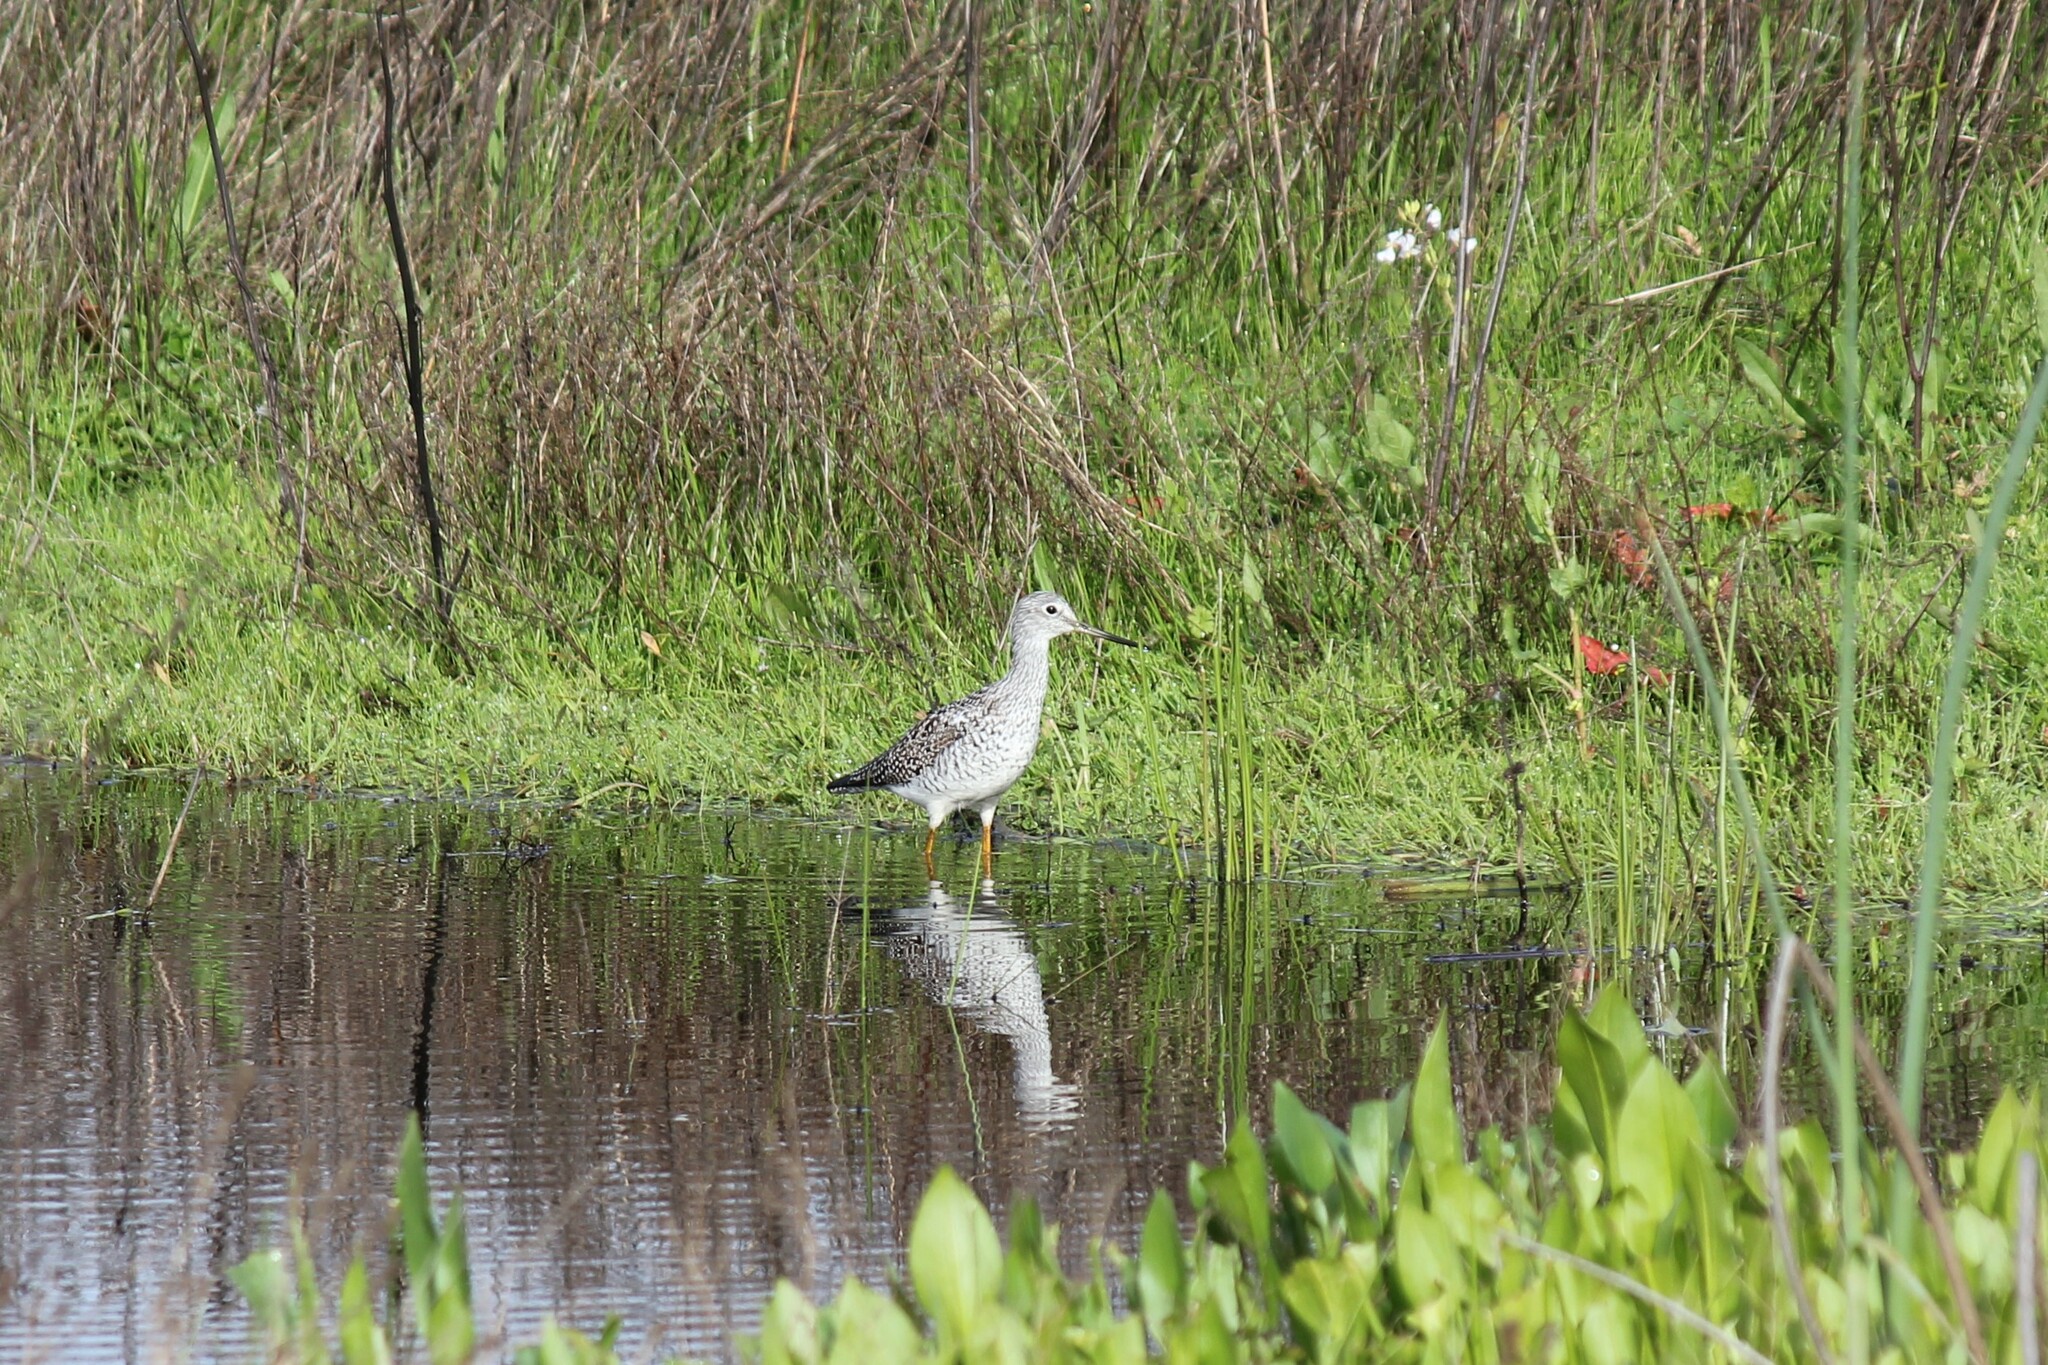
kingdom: Animalia
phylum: Chordata
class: Aves
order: Charadriiformes
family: Scolopacidae
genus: Tringa
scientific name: Tringa melanoleuca
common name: Greater yellowlegs
